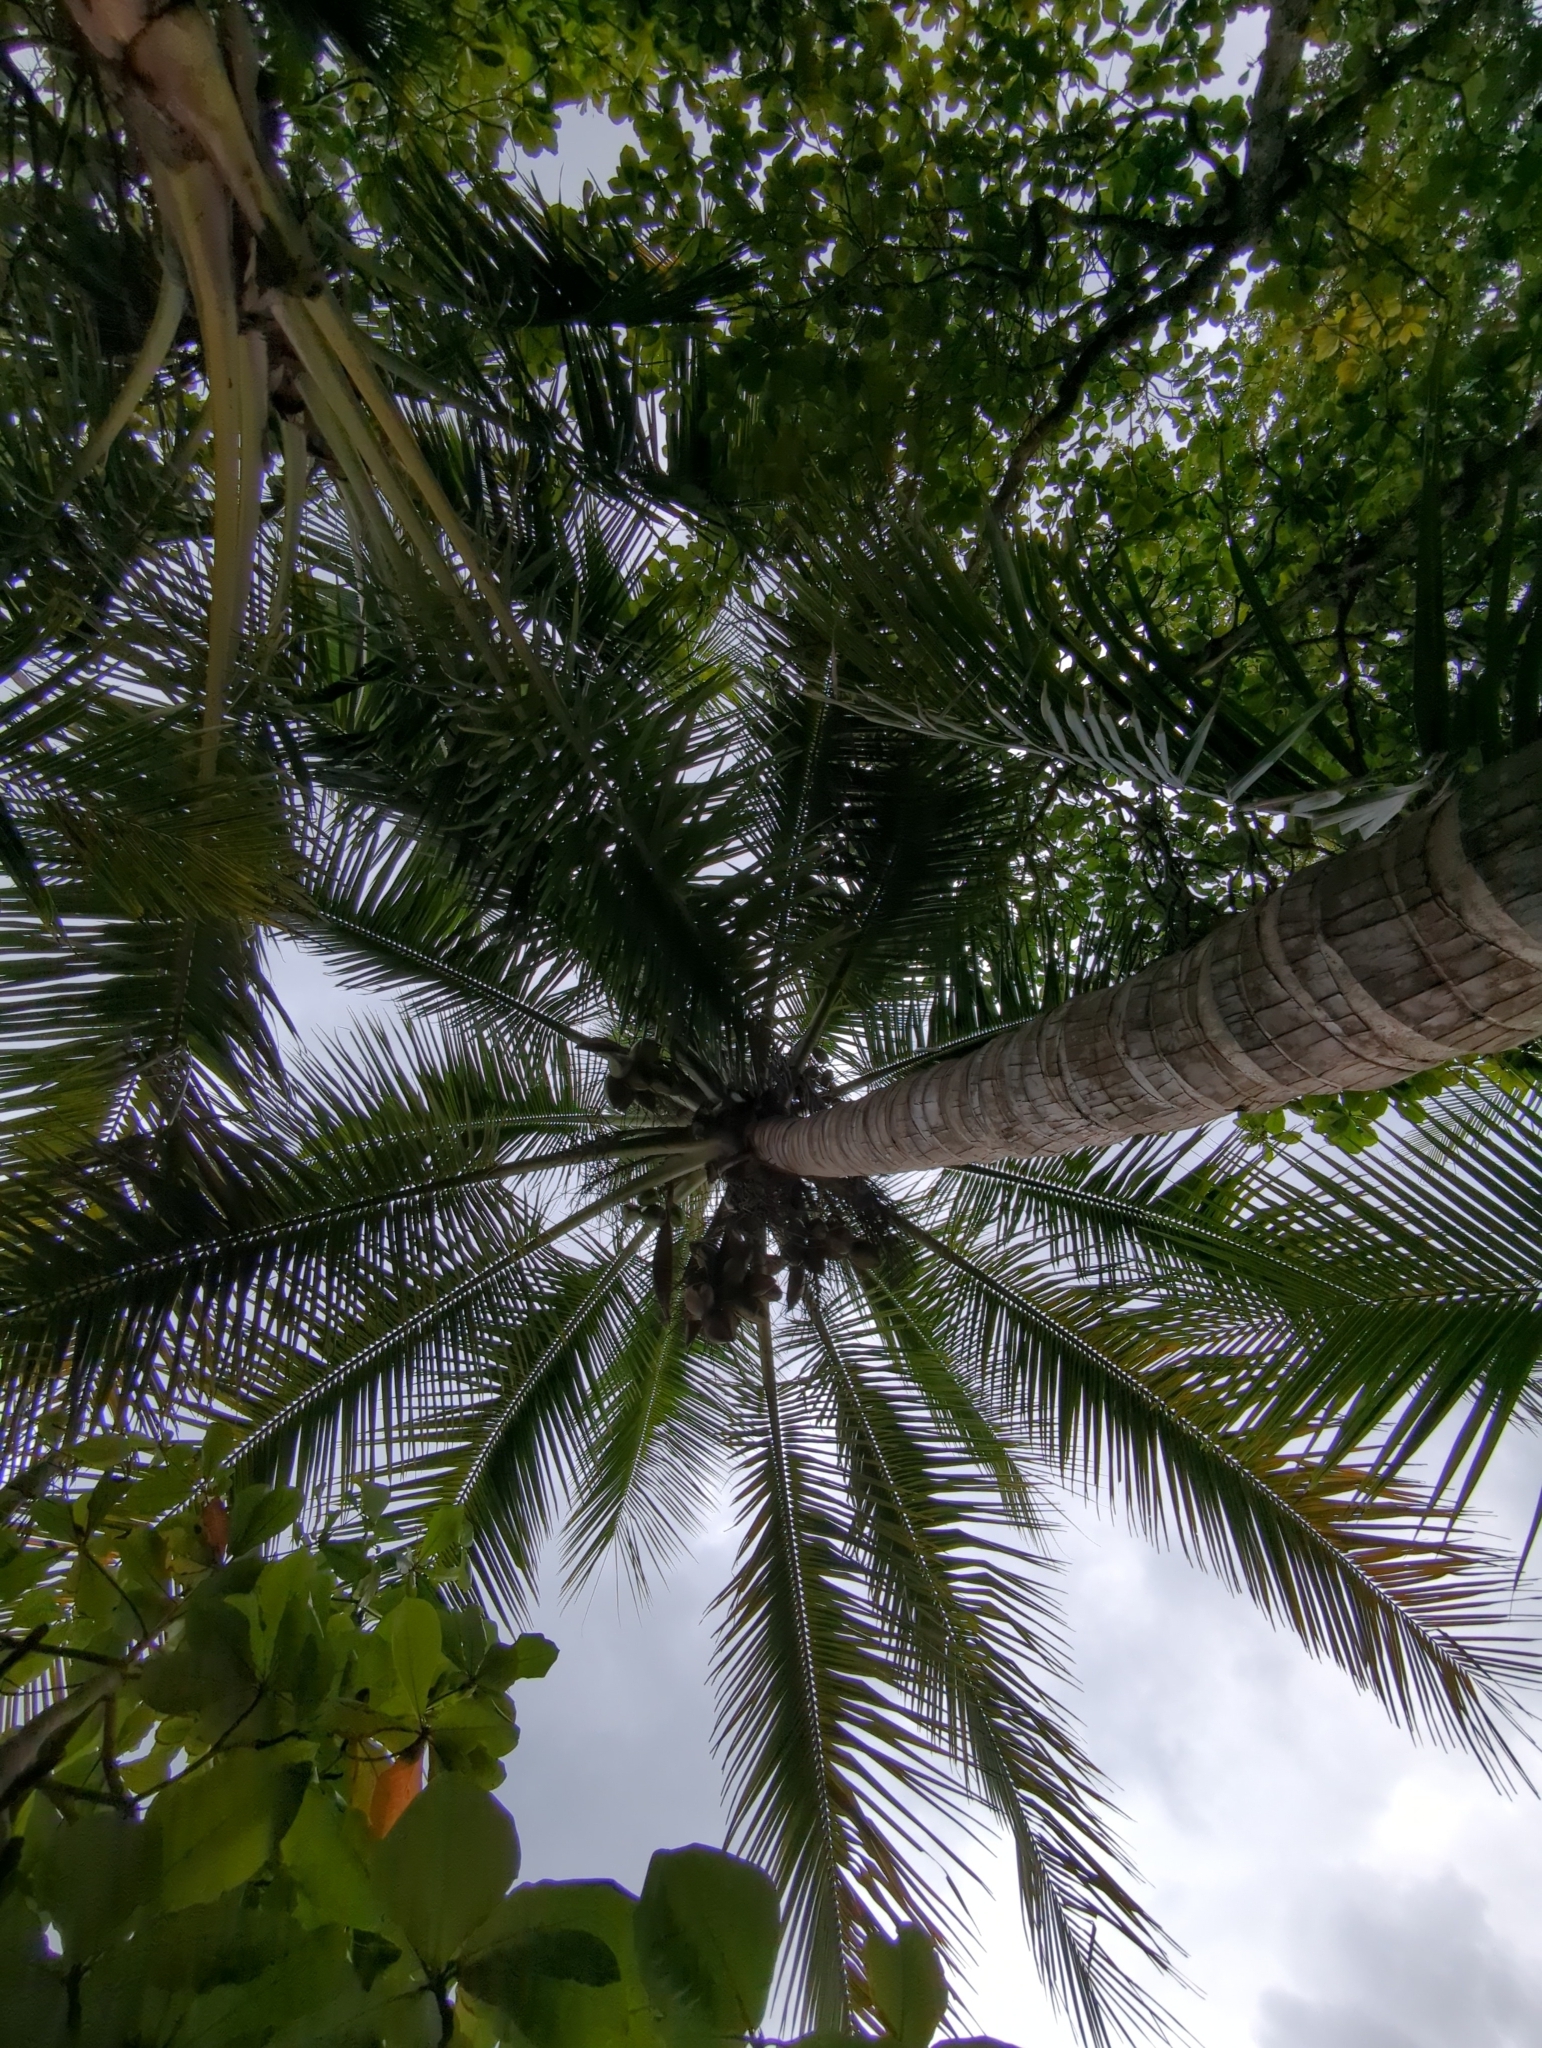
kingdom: Plantae
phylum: Tracheophyta
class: Liliopsida
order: Arecales
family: Arecaceae
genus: Cocos
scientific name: Cocos nucifera
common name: Coconut palm
